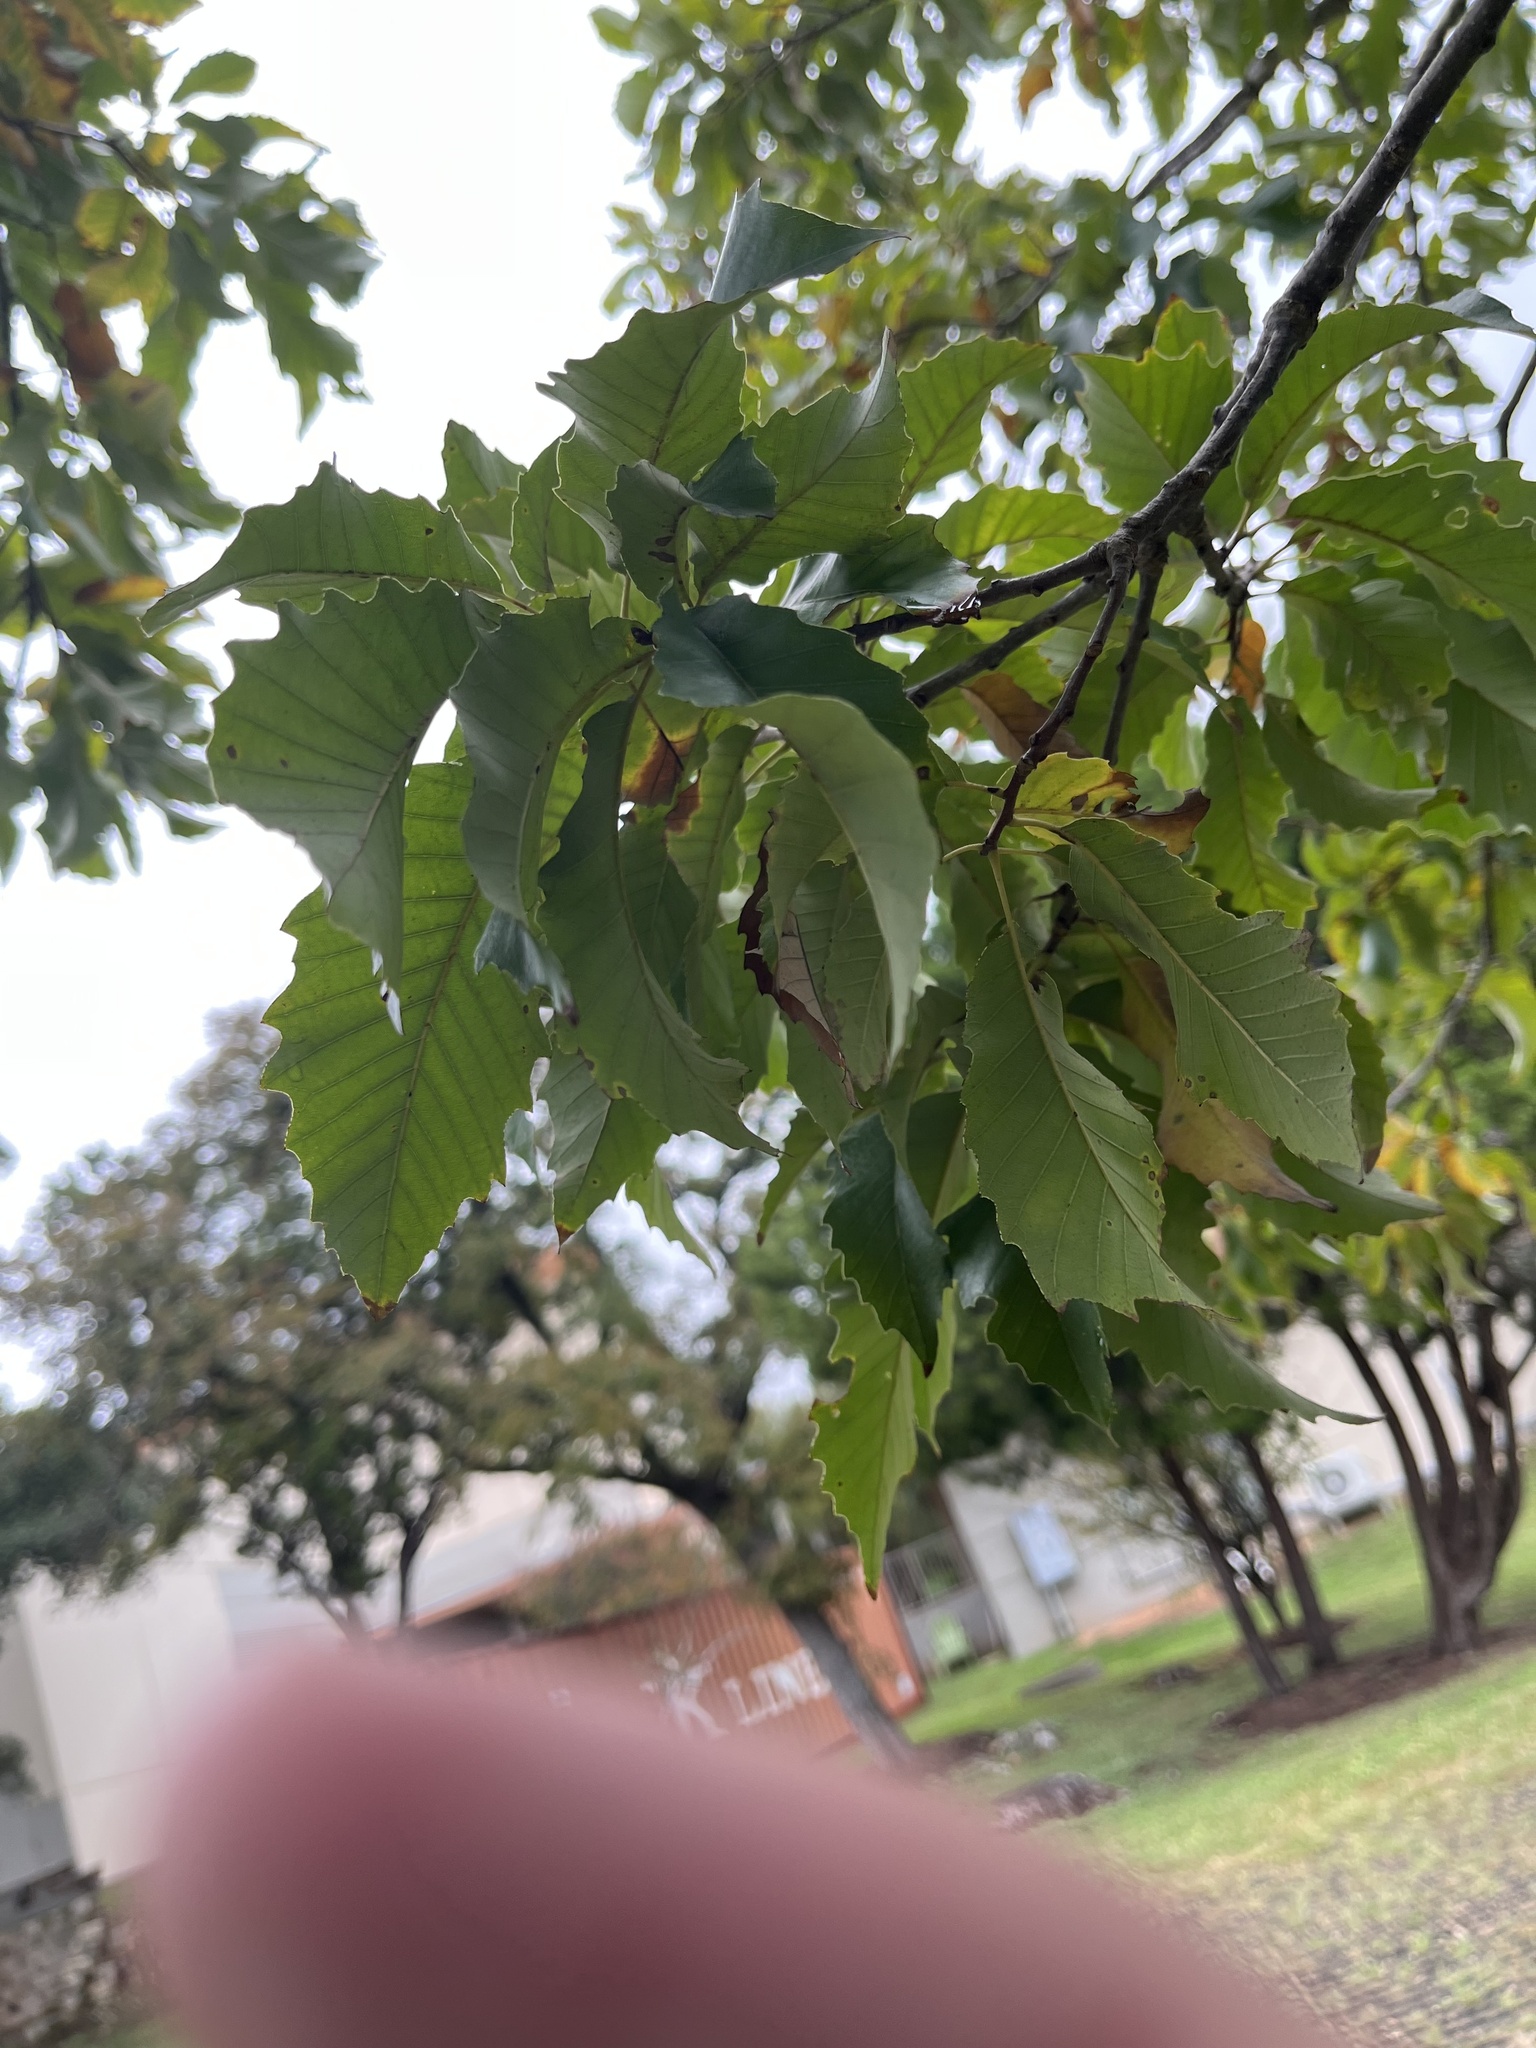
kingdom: Plantae
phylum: Tracheophyta
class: Magnoliopsida
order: Fagales
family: Fagaceae
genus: Quercus
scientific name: Quercus muehlenbergii
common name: Chinkapin oak
